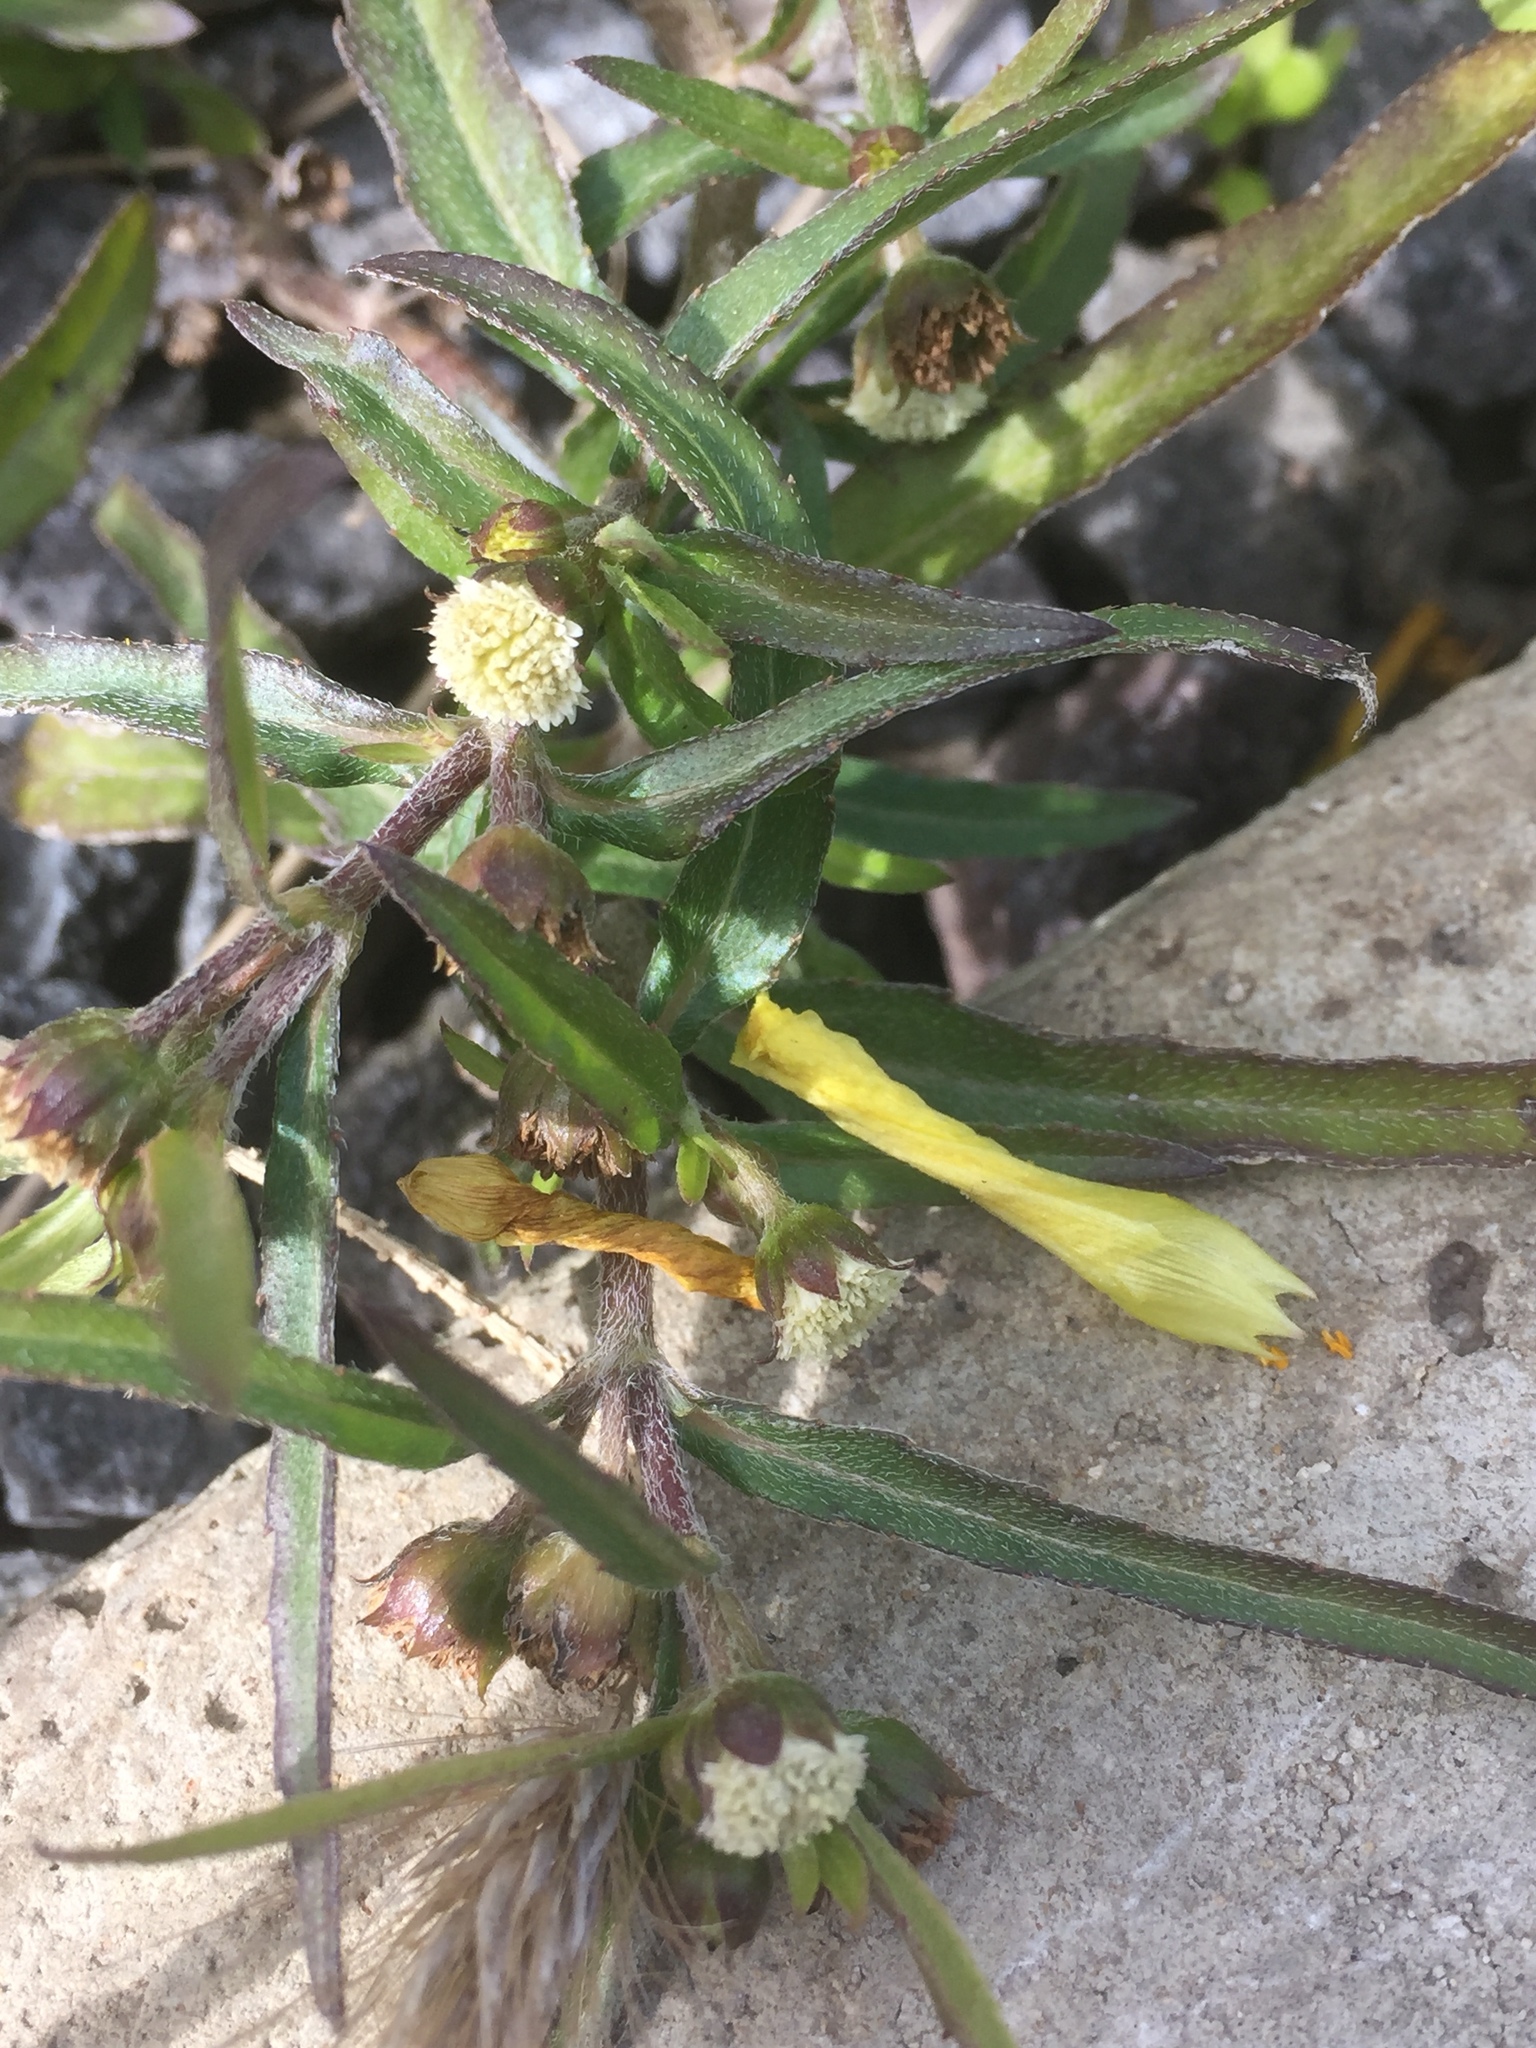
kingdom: Plantae
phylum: Tracheophyta
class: Magnoliopsida
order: Asterales
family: Asteraceae
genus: Eclipta
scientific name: Eclipta prostrata
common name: False daisy
